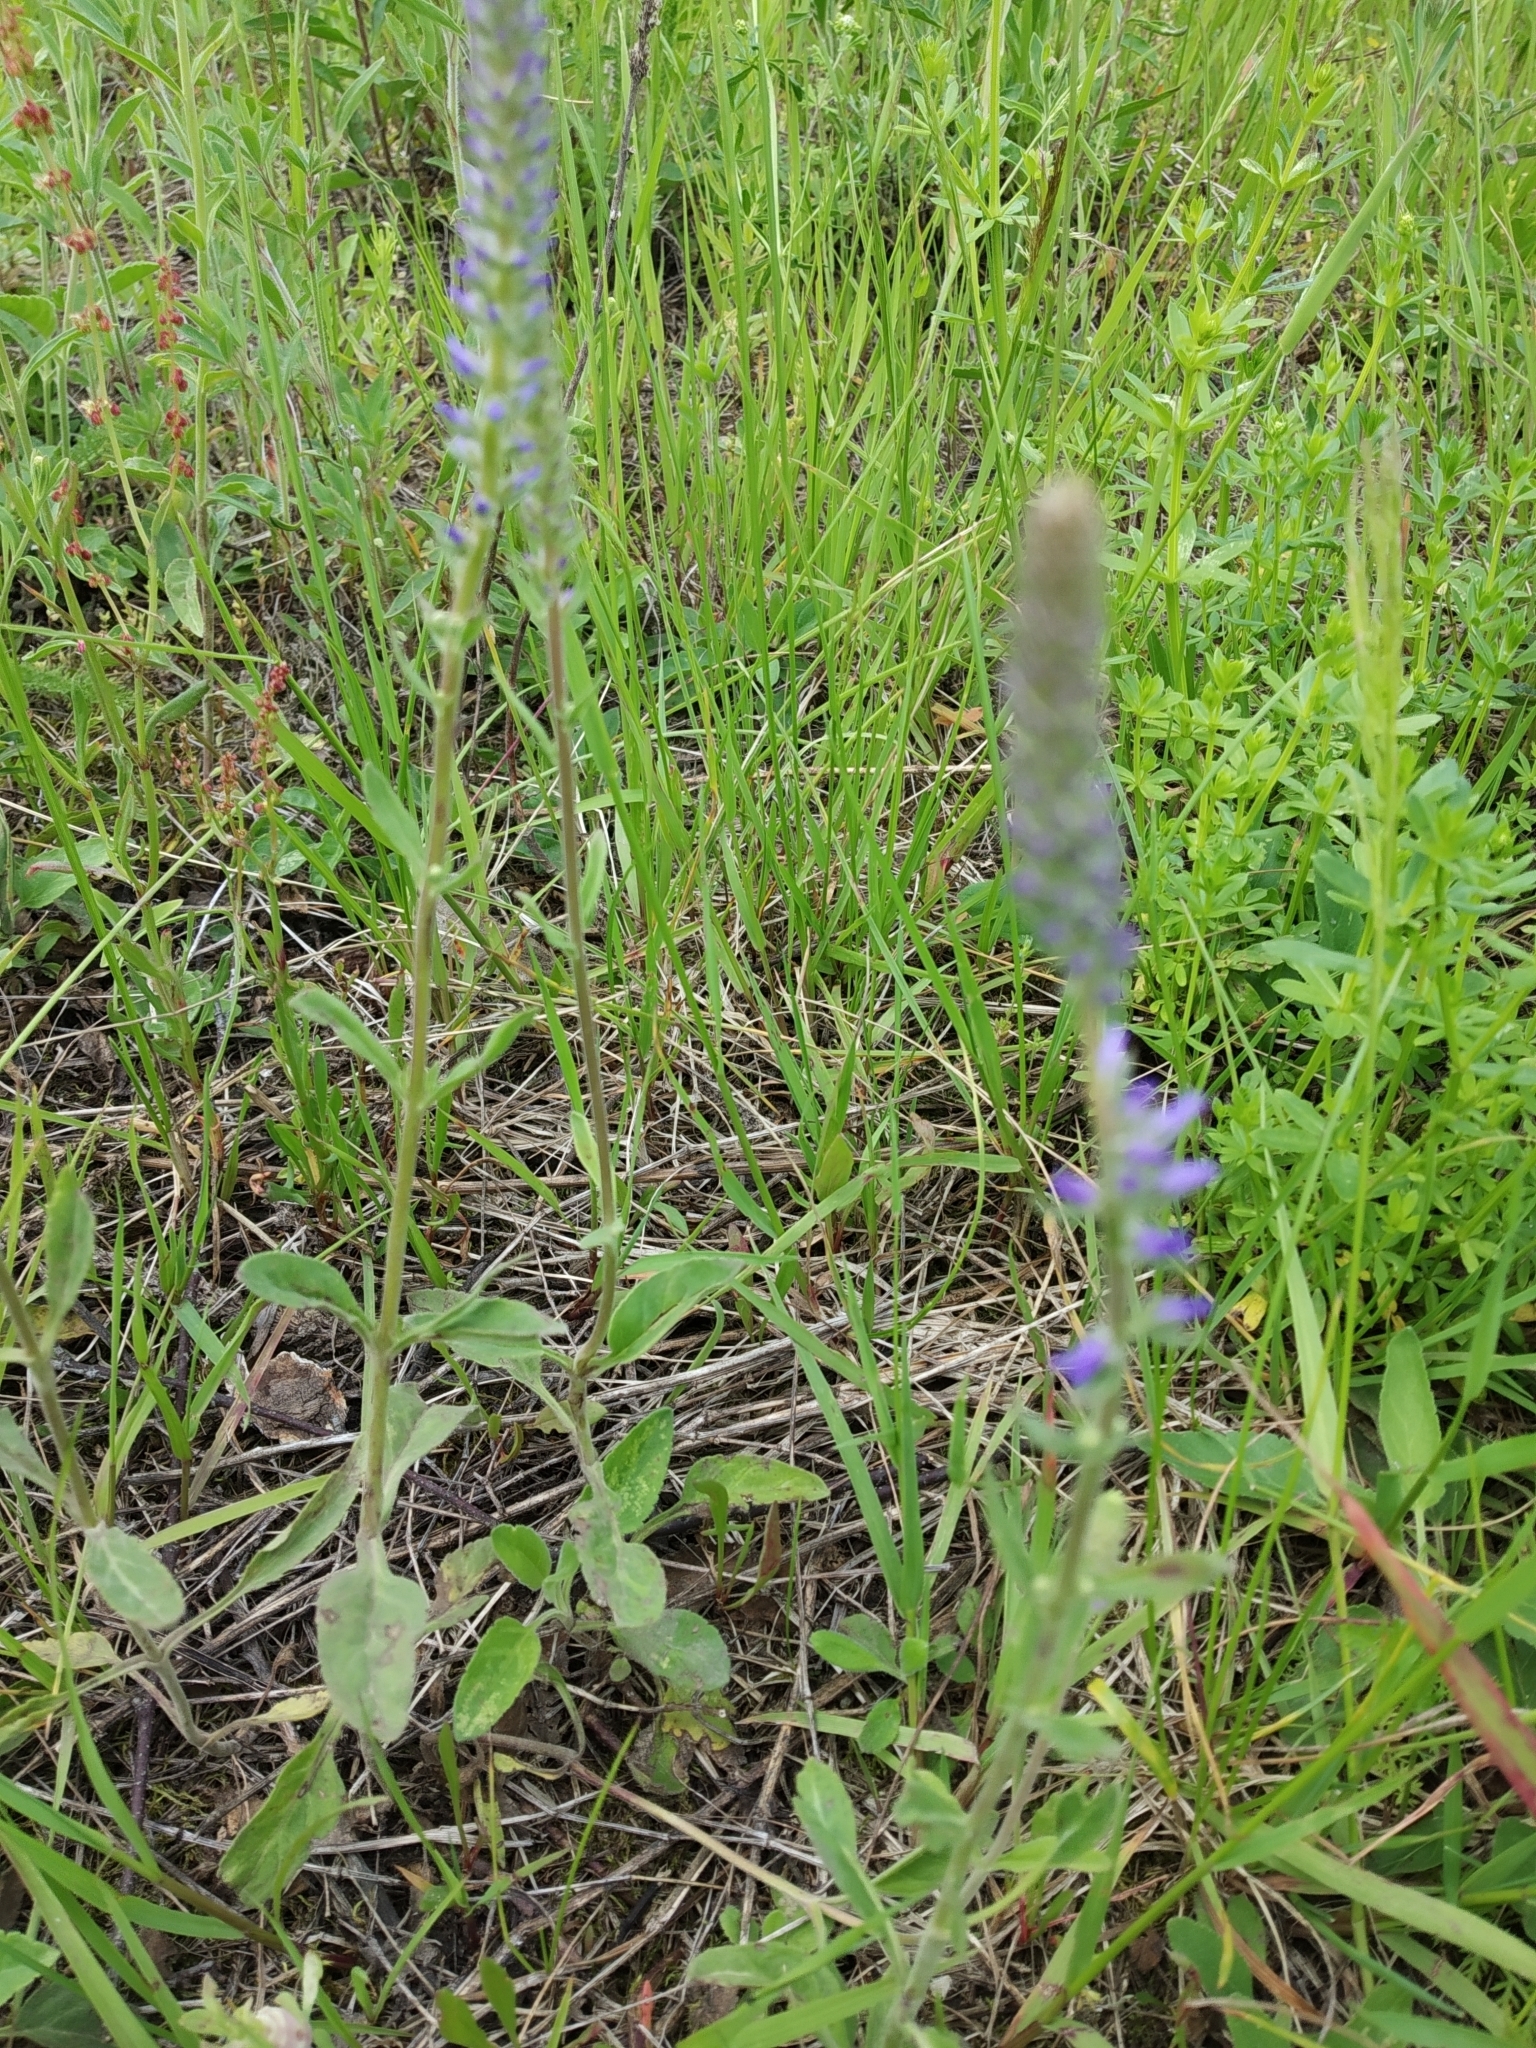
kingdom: Plantae
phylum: Tracheophyta
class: Magnoliopsida
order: Lamiales
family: Plantaginaceae
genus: Veronica
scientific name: Veronica spicata
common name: Spiked speedwell
